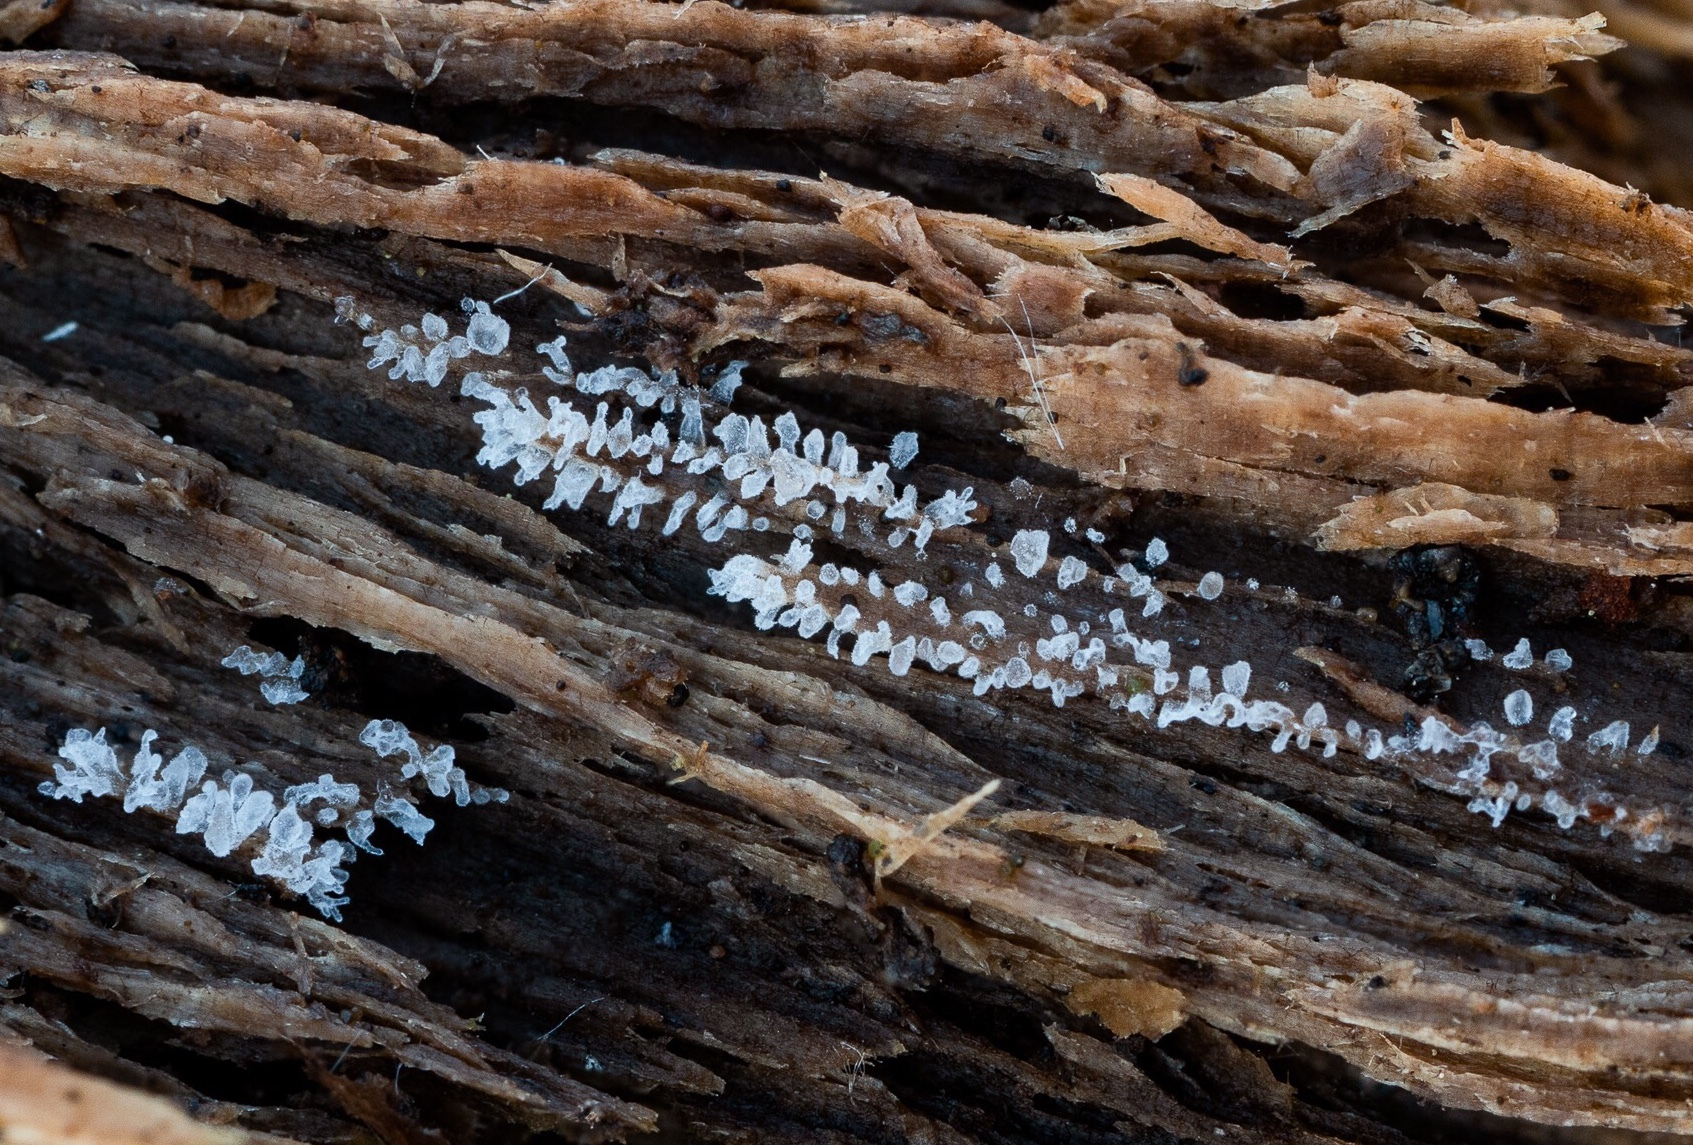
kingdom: Protozoa
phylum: Mycetozoa
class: Protosteliomycetes
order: Ceratiomyxales
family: Ceratiomyxaceae
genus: Ceratiomyxa
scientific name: Ceratiomyxa fruticulosa
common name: Honeycomb coral slime mold
